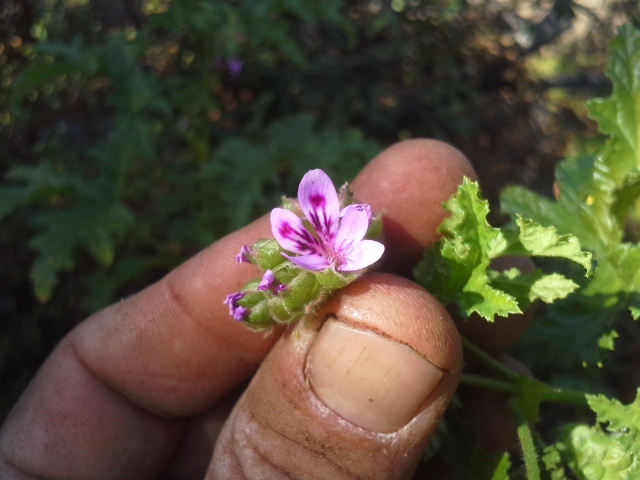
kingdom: Plantae
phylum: Tracheophyta
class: Magnoliopsida
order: Geraniales
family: Geraniaceae
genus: Pelargonium
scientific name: Pelargonium graveolens
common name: Rose-scent geranium
